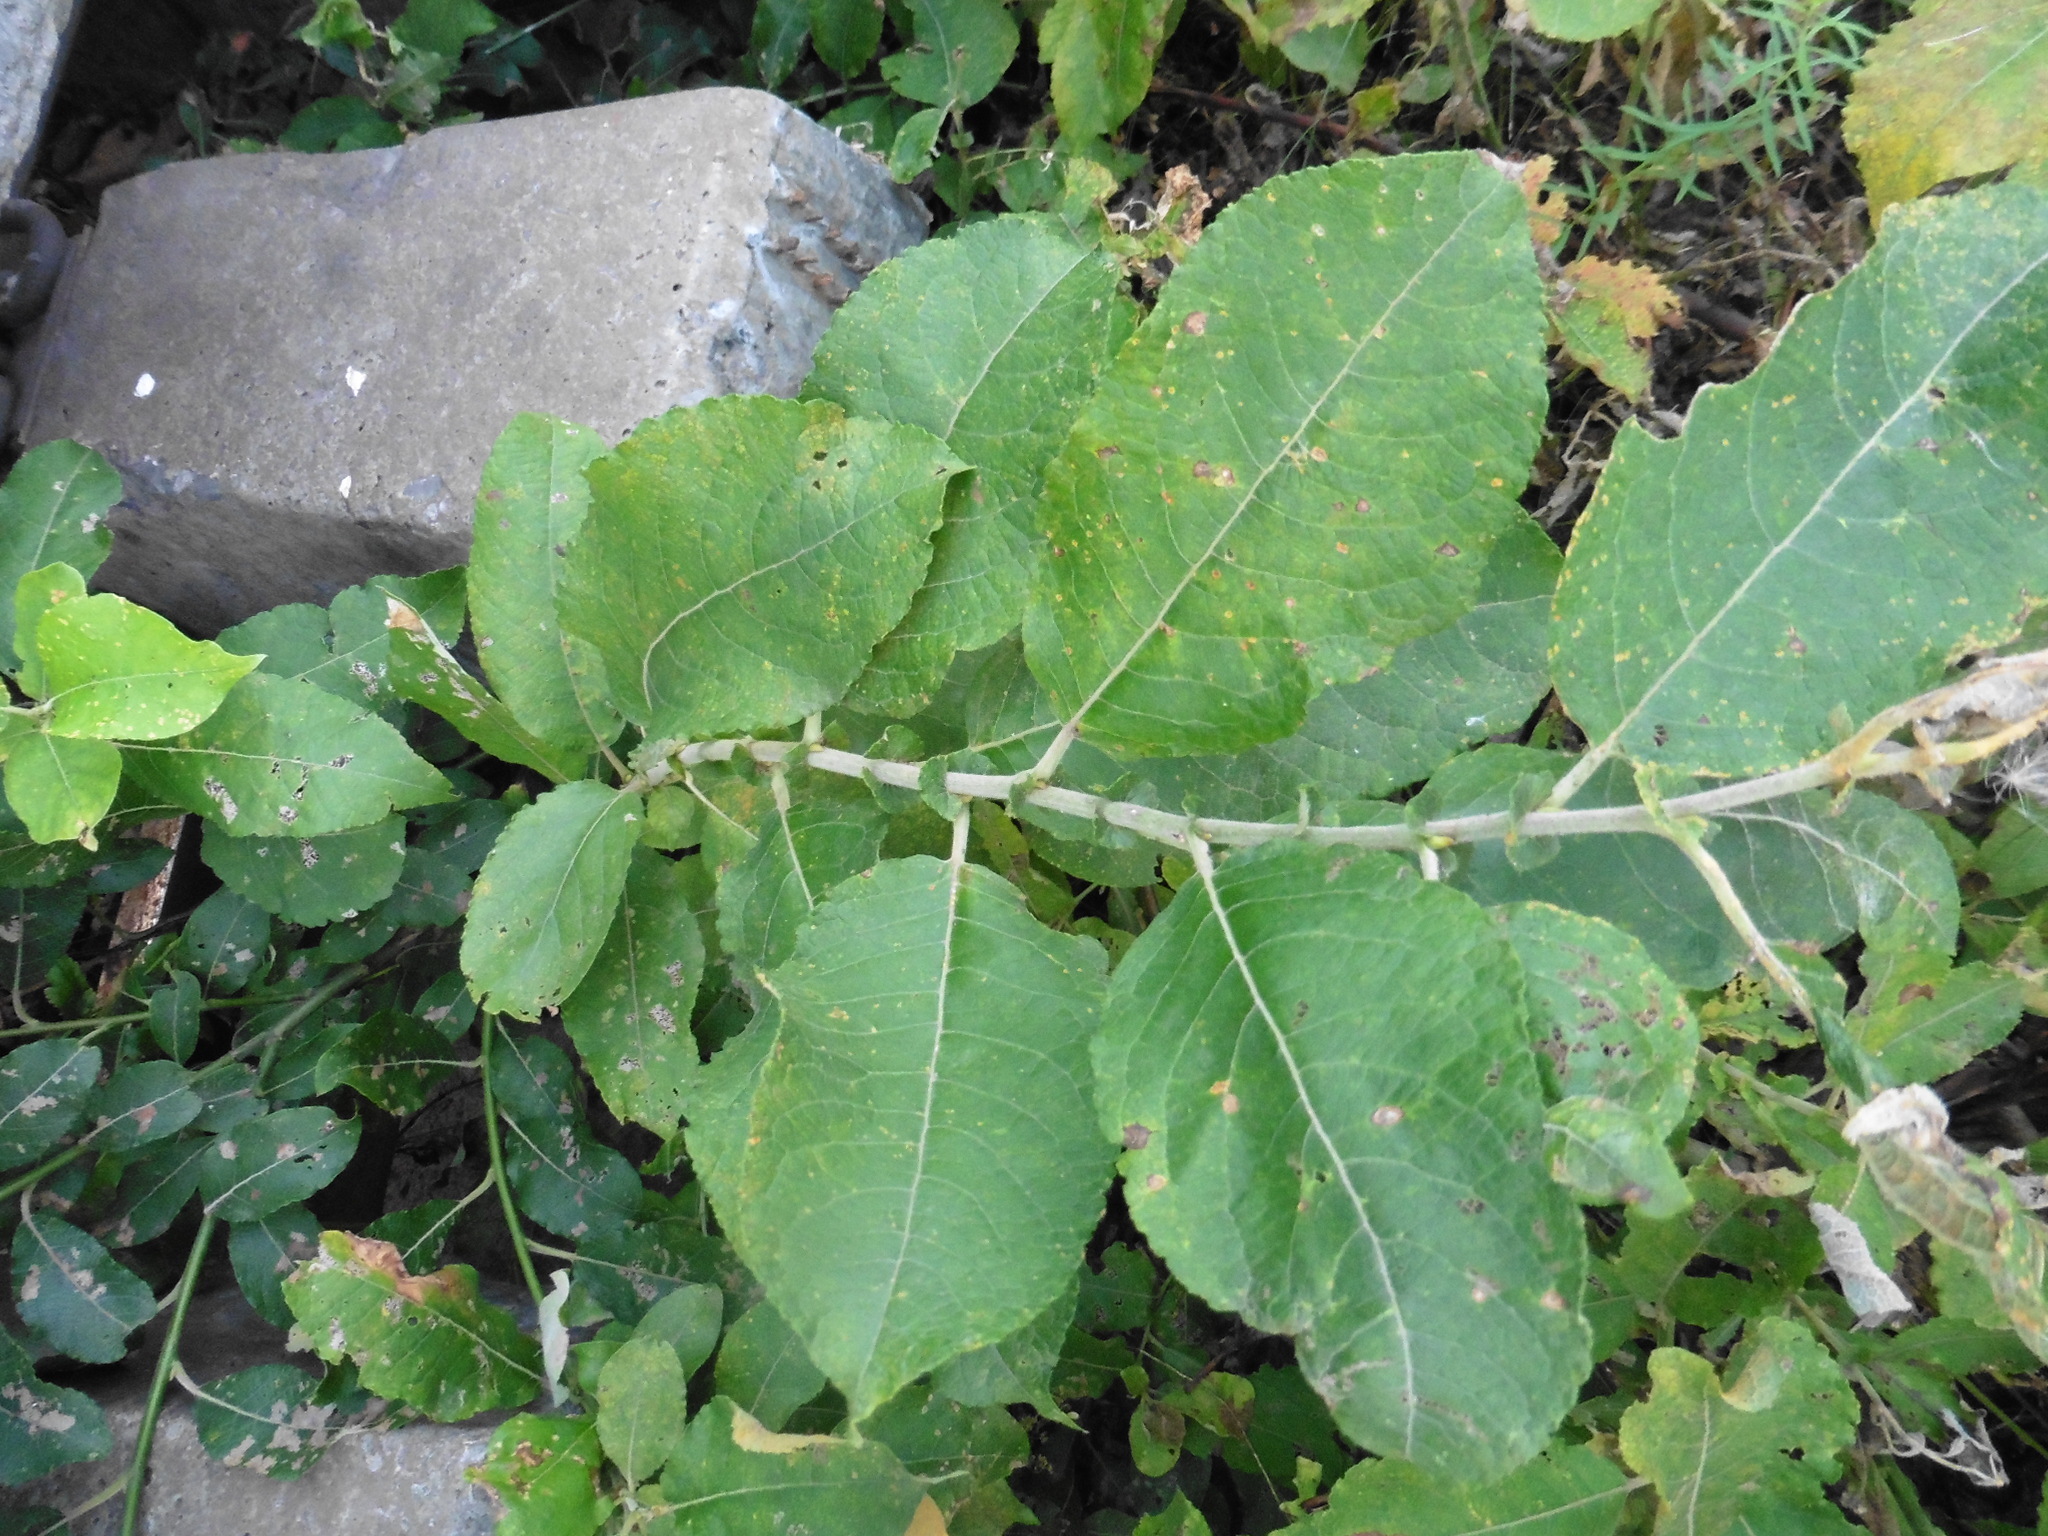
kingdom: Plantae
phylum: Tracheophyta
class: Magnoliopsida
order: Malpighiales
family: Salicaceae
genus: Salix
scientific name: Salix caprea
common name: Goat willow
